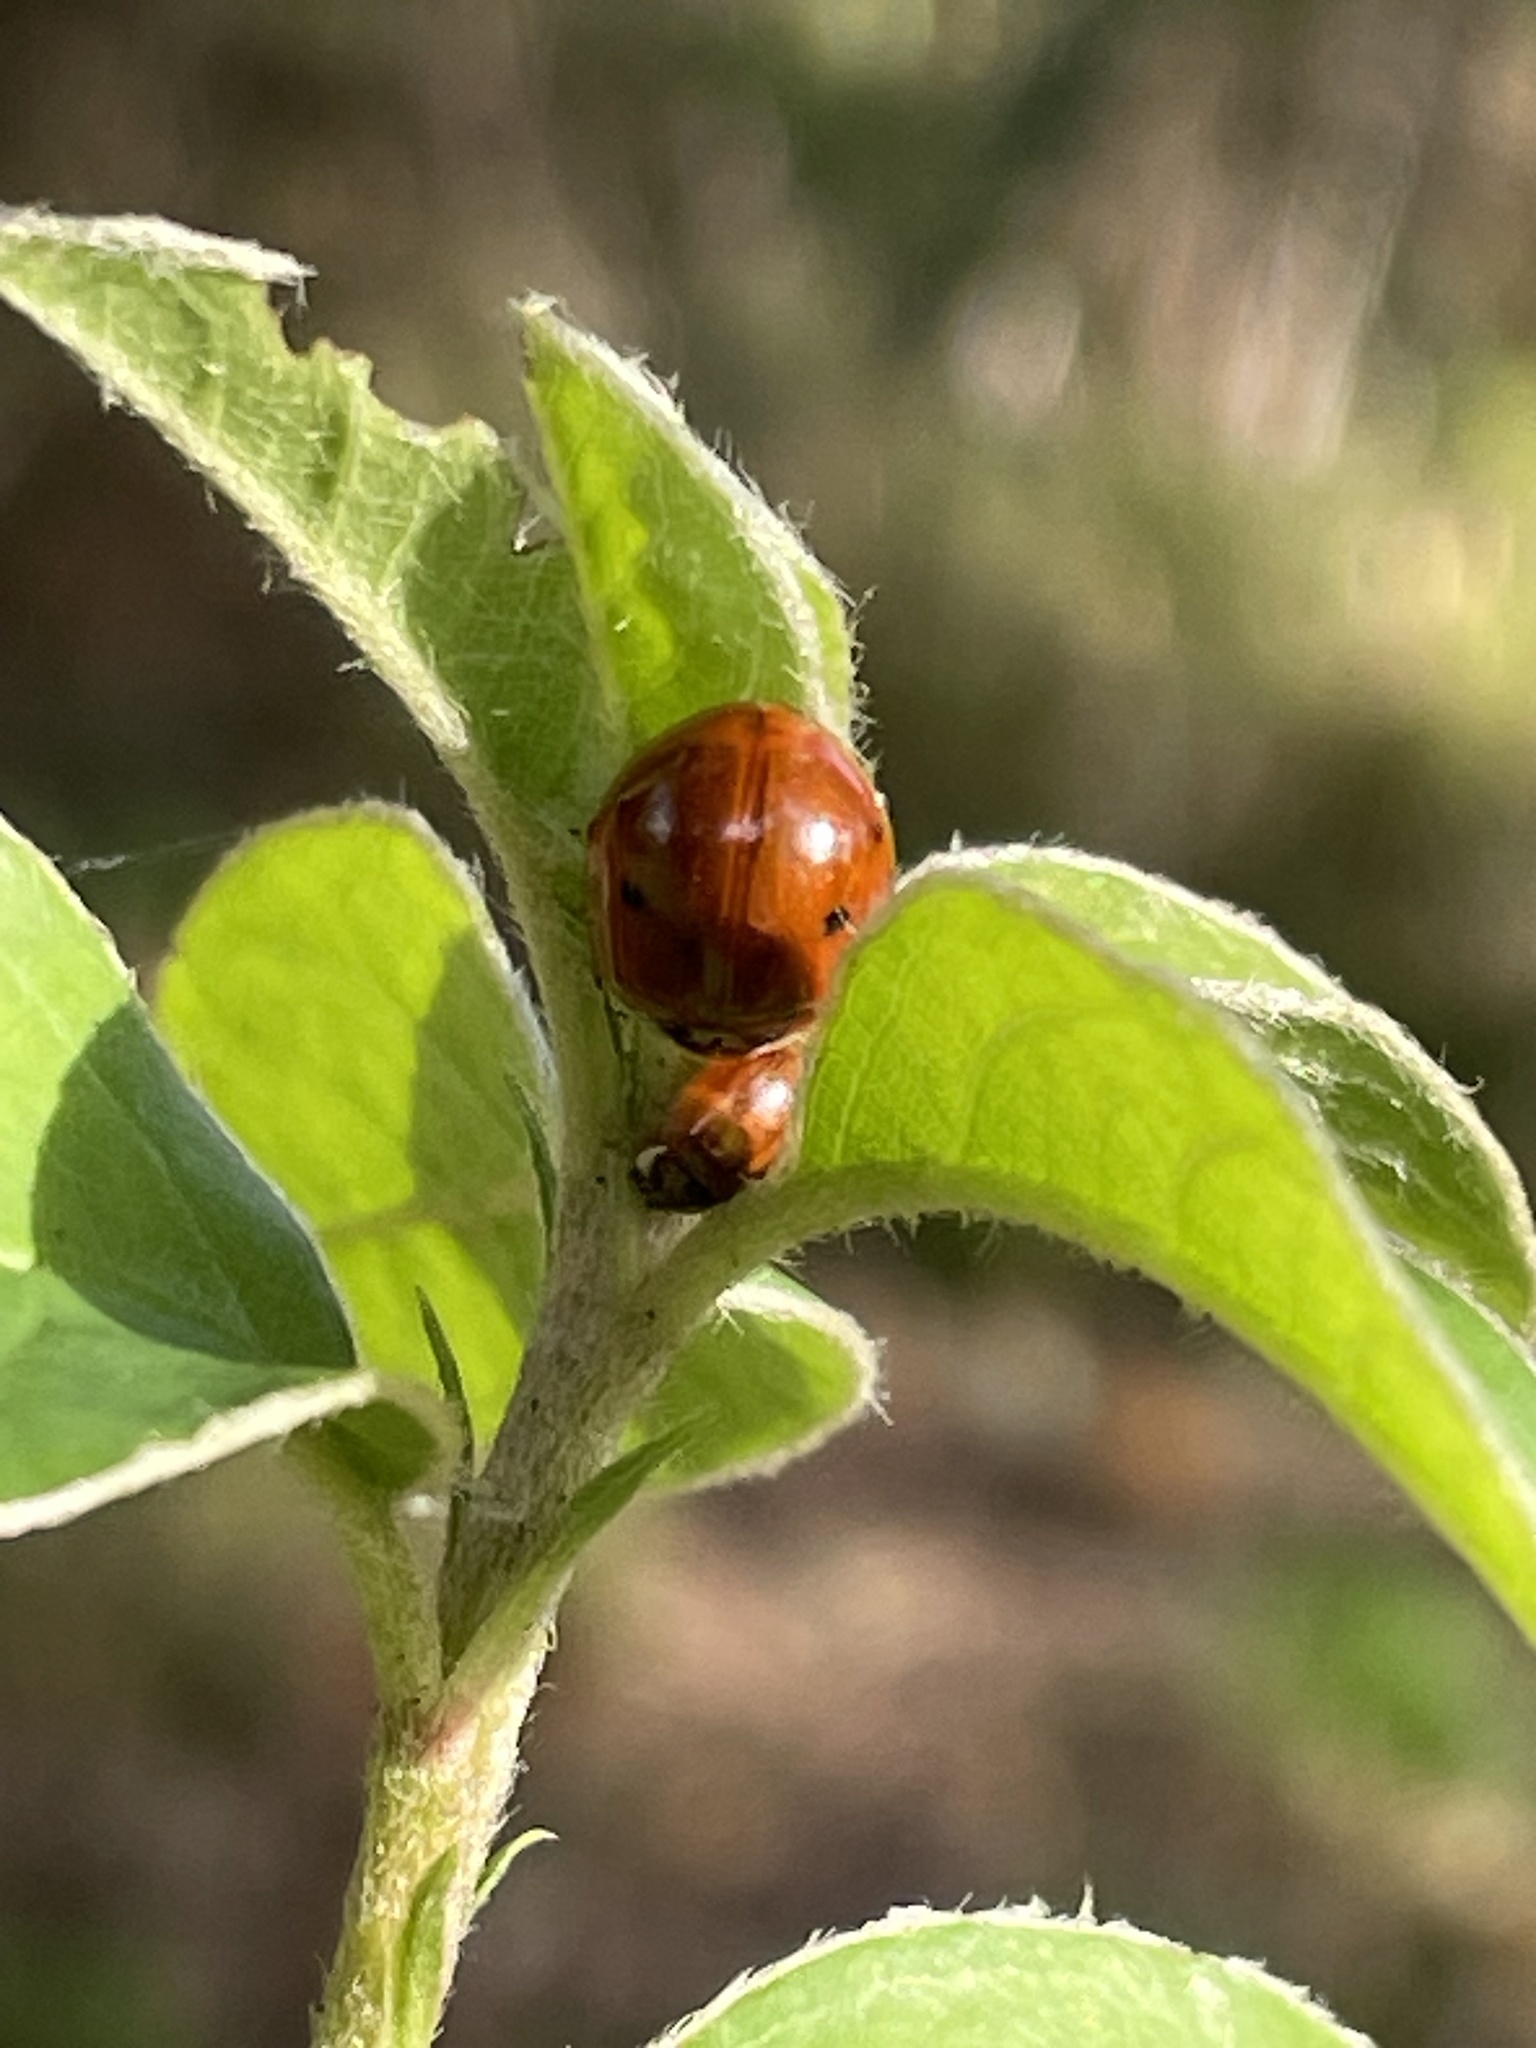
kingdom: Animalia
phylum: Arthropoda
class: Insecta
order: Coleoptera
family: Coccinellidae
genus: Harmonia
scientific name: Harmonia axyridis
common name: Harlequin ladybird
